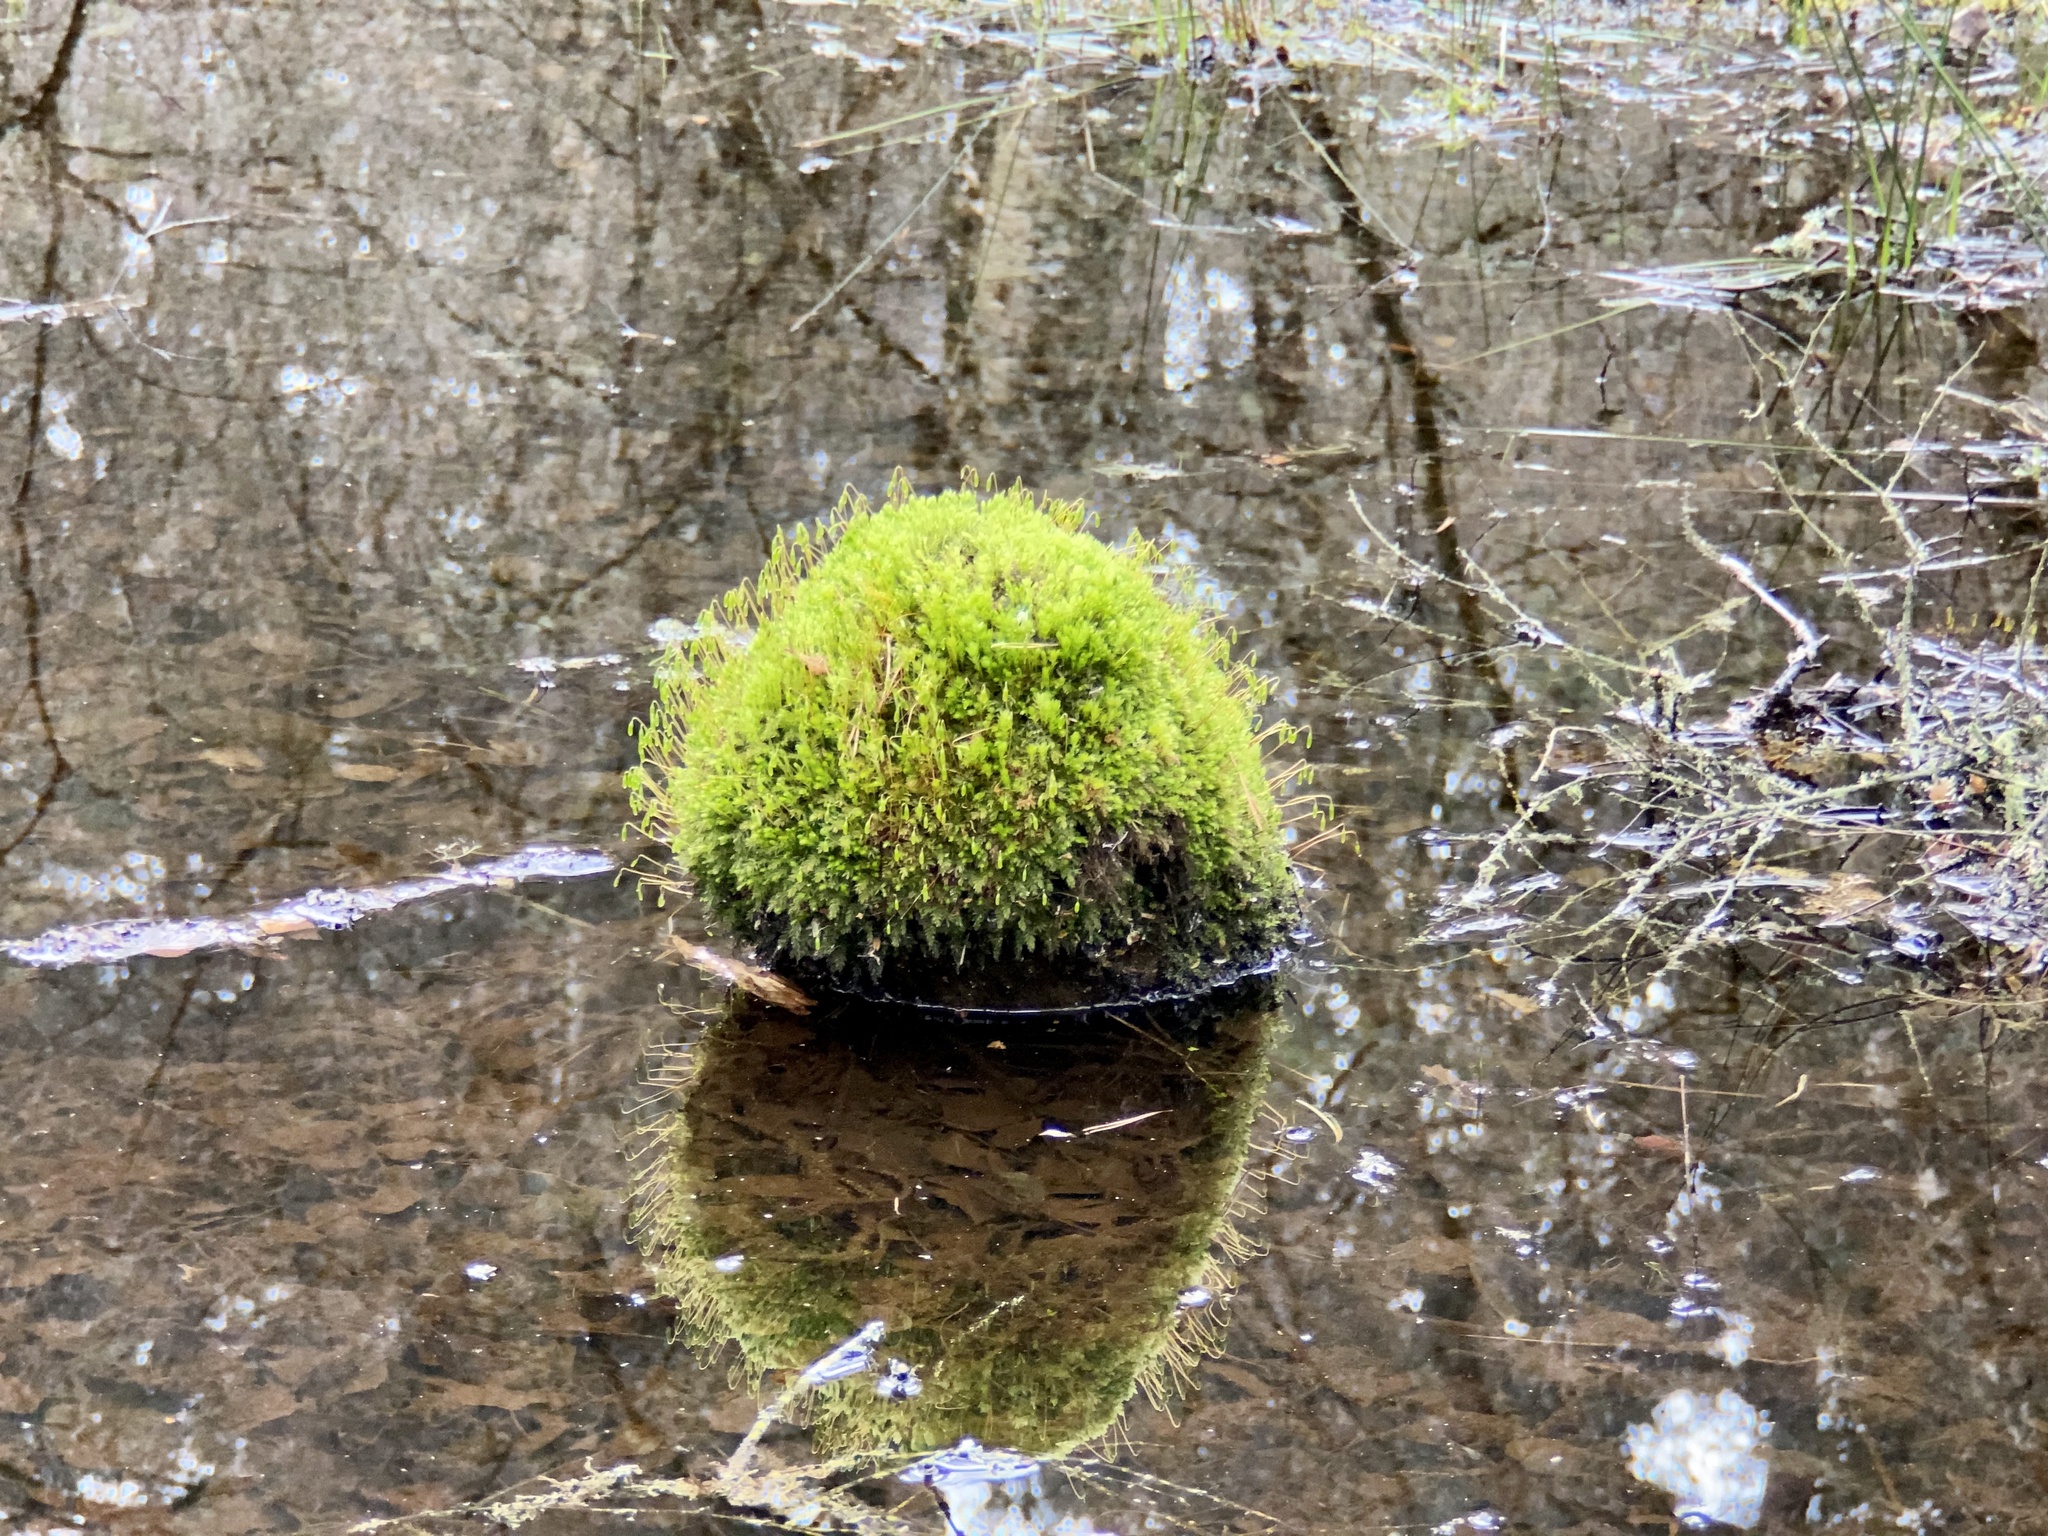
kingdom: Plantae
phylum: Bryophyta
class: Bryopsida
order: Bryales
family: Mniaceae
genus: Mnium
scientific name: Mnium hornum
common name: Swan's-neck leafy moss
